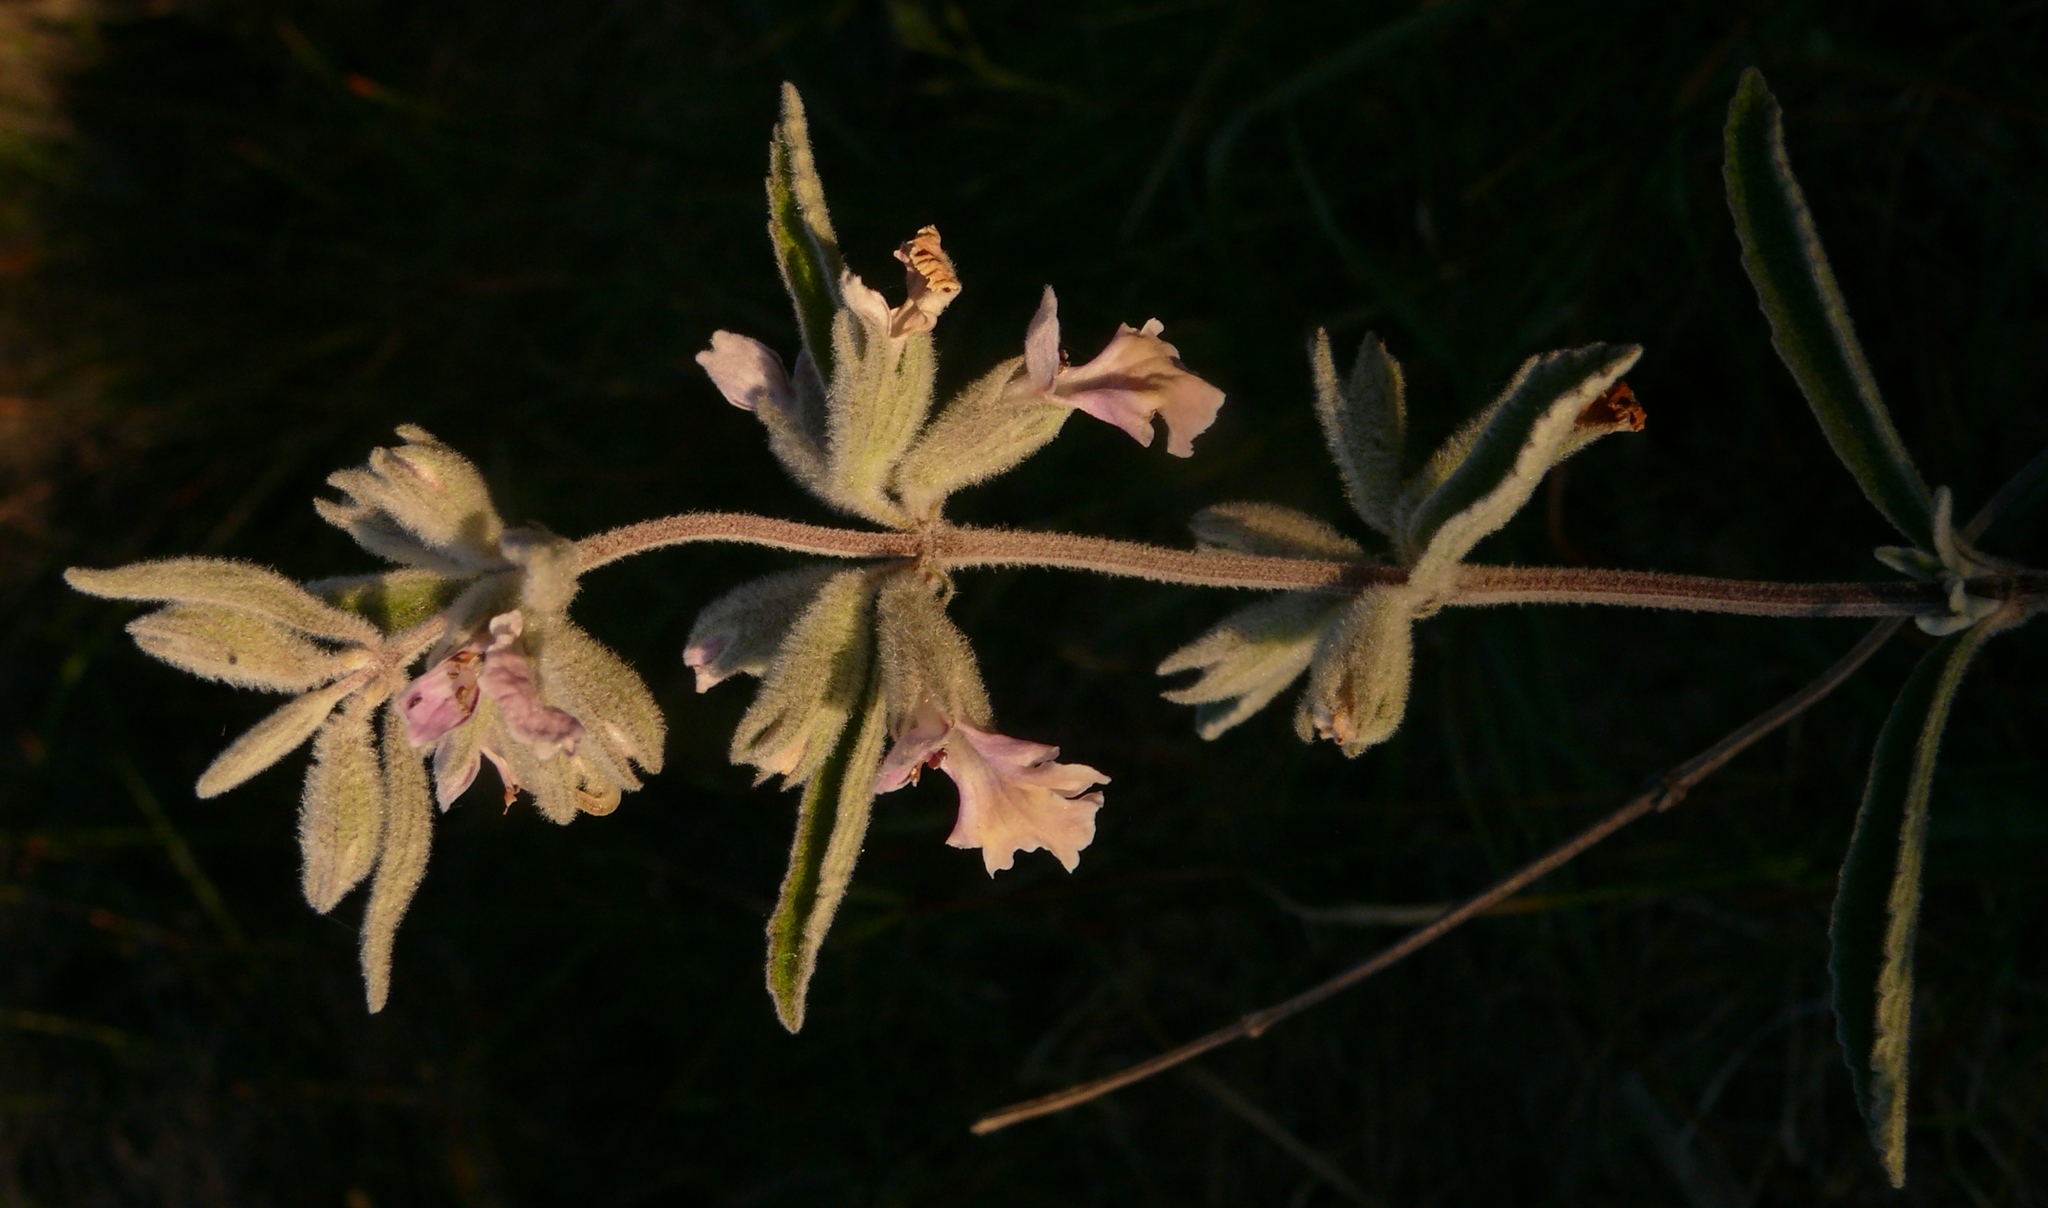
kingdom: Plantae
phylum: Tracheophyta
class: Magnoliopsida
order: Lamiales
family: Lamiaceae
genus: Stachys
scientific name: Stachys rugosa
